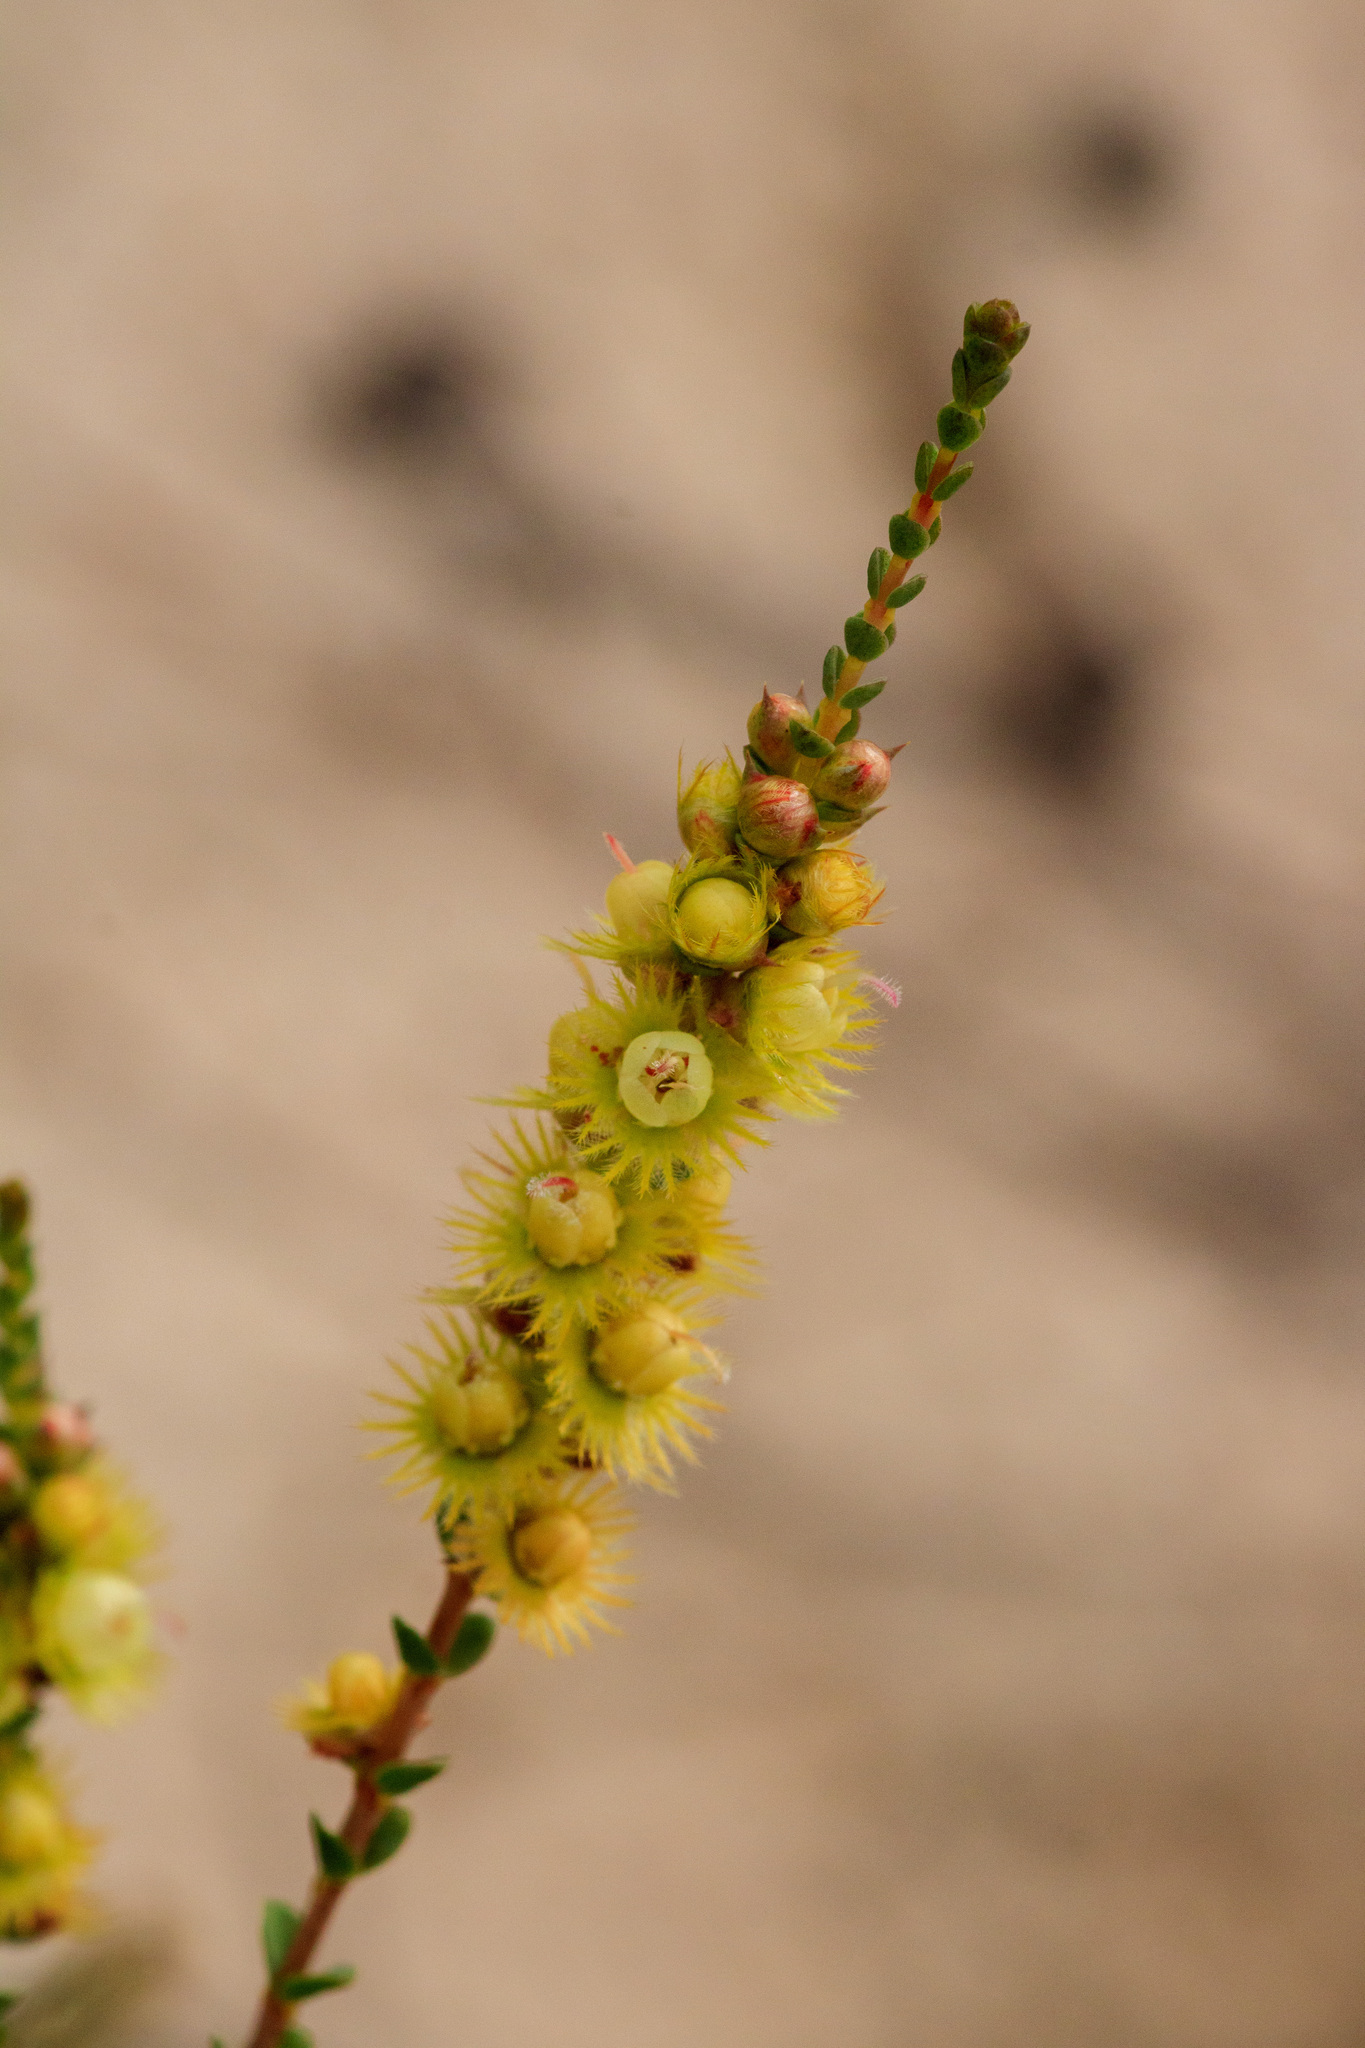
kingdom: Plantae
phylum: Tracheophyta
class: Magnoliopsida
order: Myrtales
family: Myrtaceae
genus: Verticordia
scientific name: Verticordia lepidophylla
